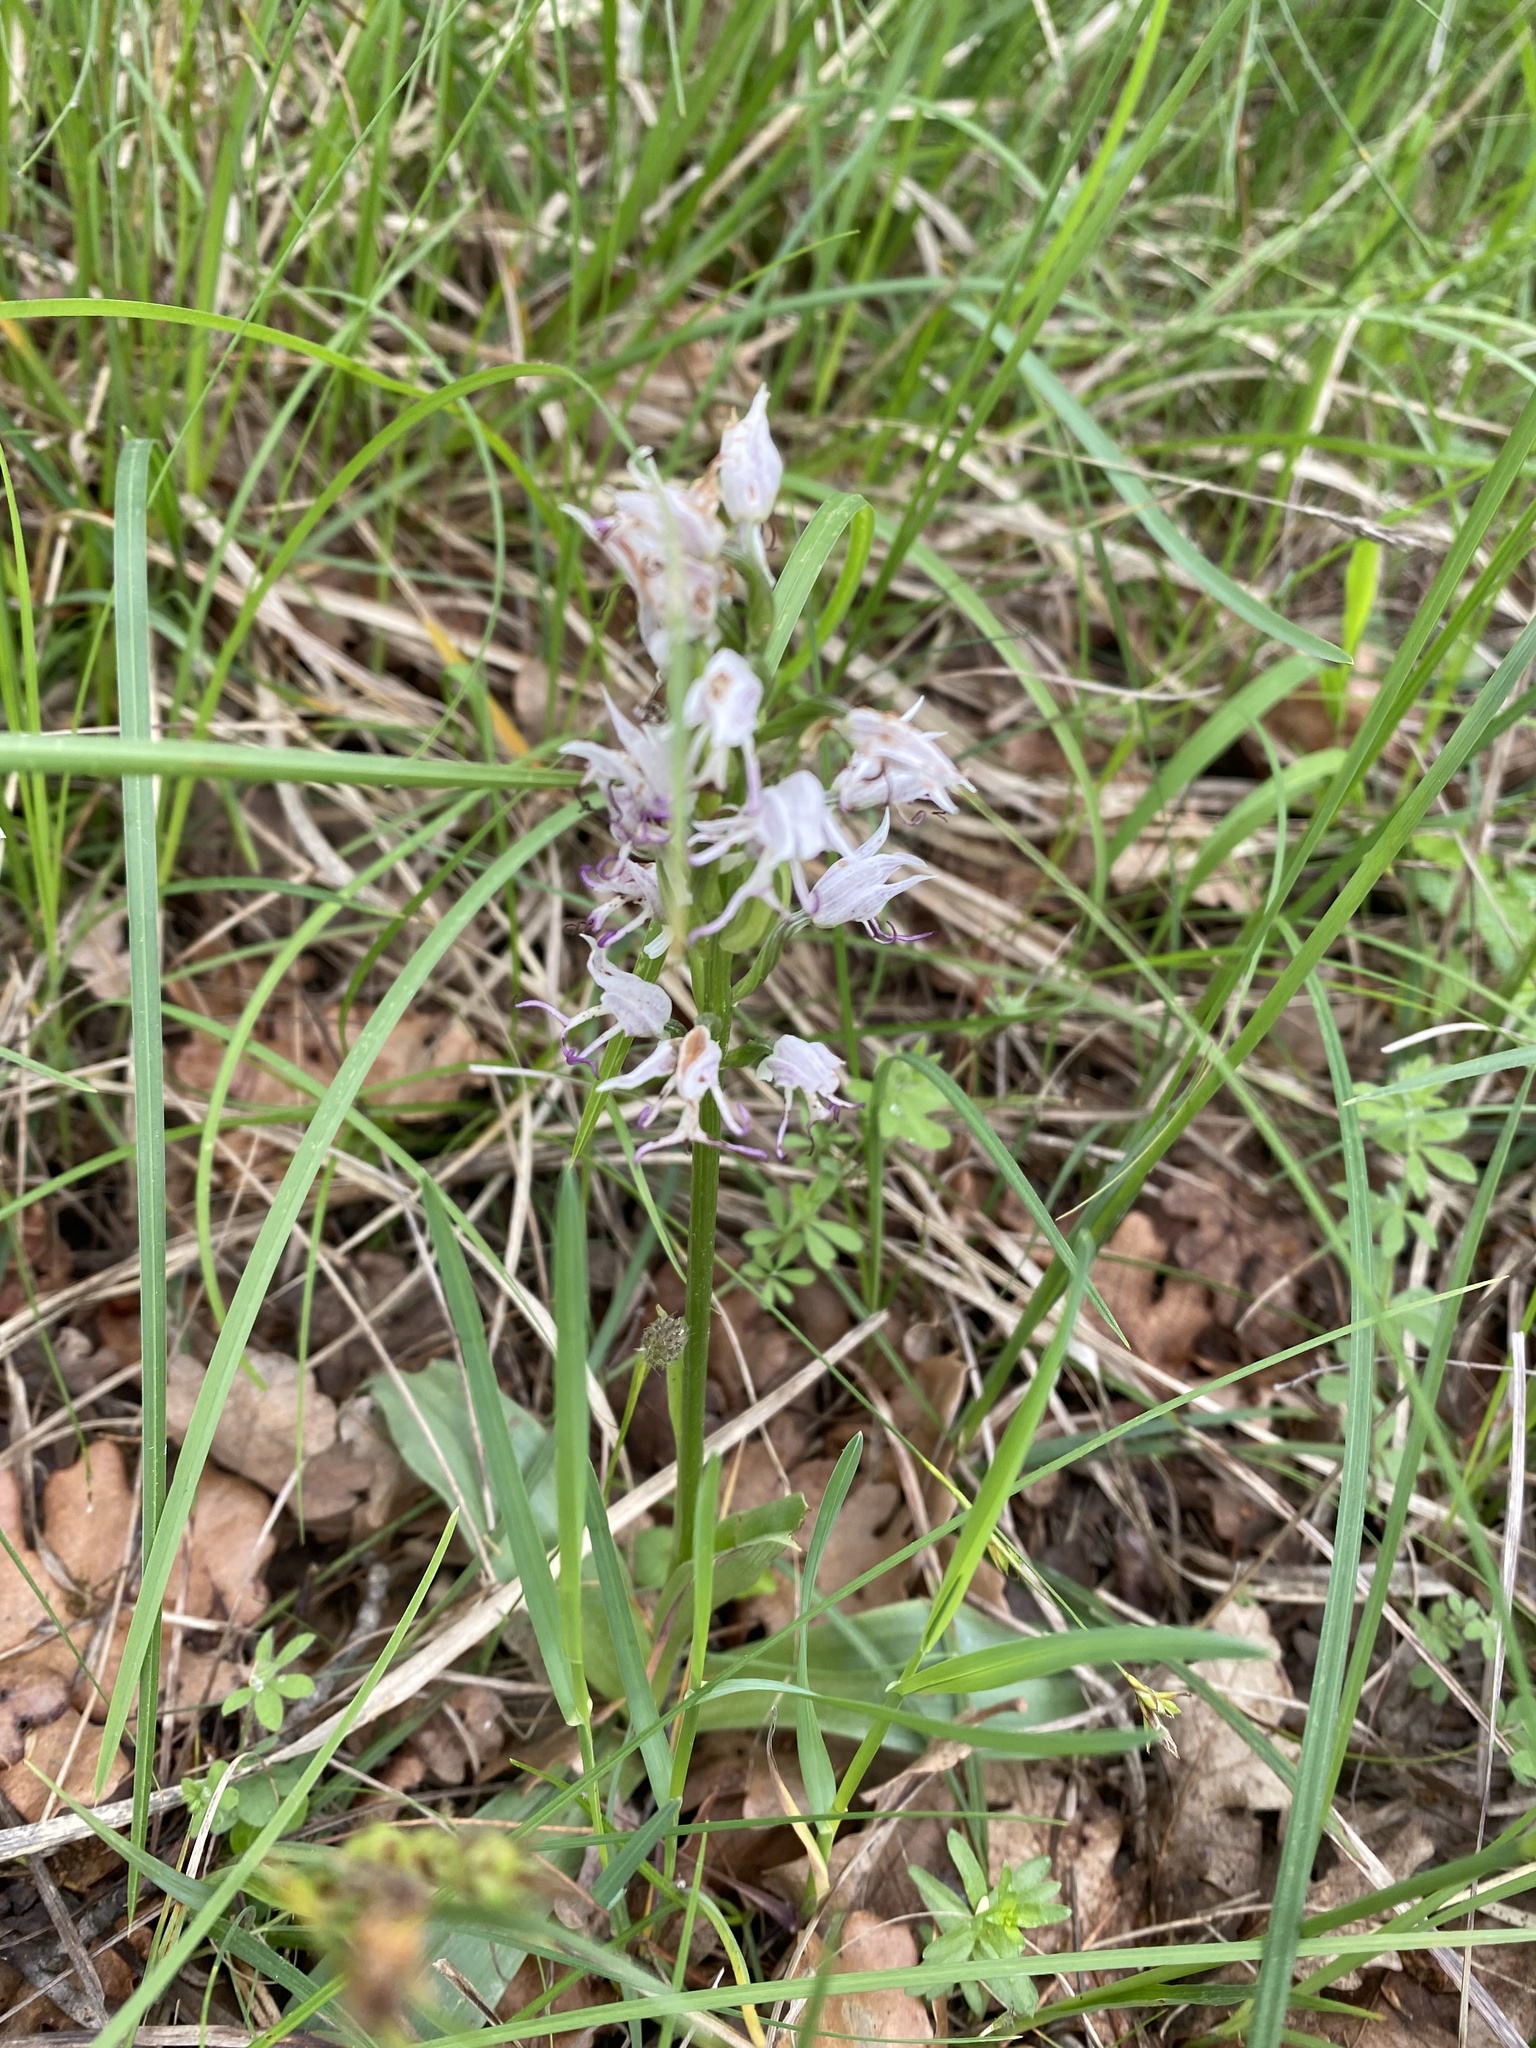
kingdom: Plantae
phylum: Tracheophyta
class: Liliopsida
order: Asparagales
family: Orchidaceae
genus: Orchis
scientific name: Orchis simia
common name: Monkey orchid
